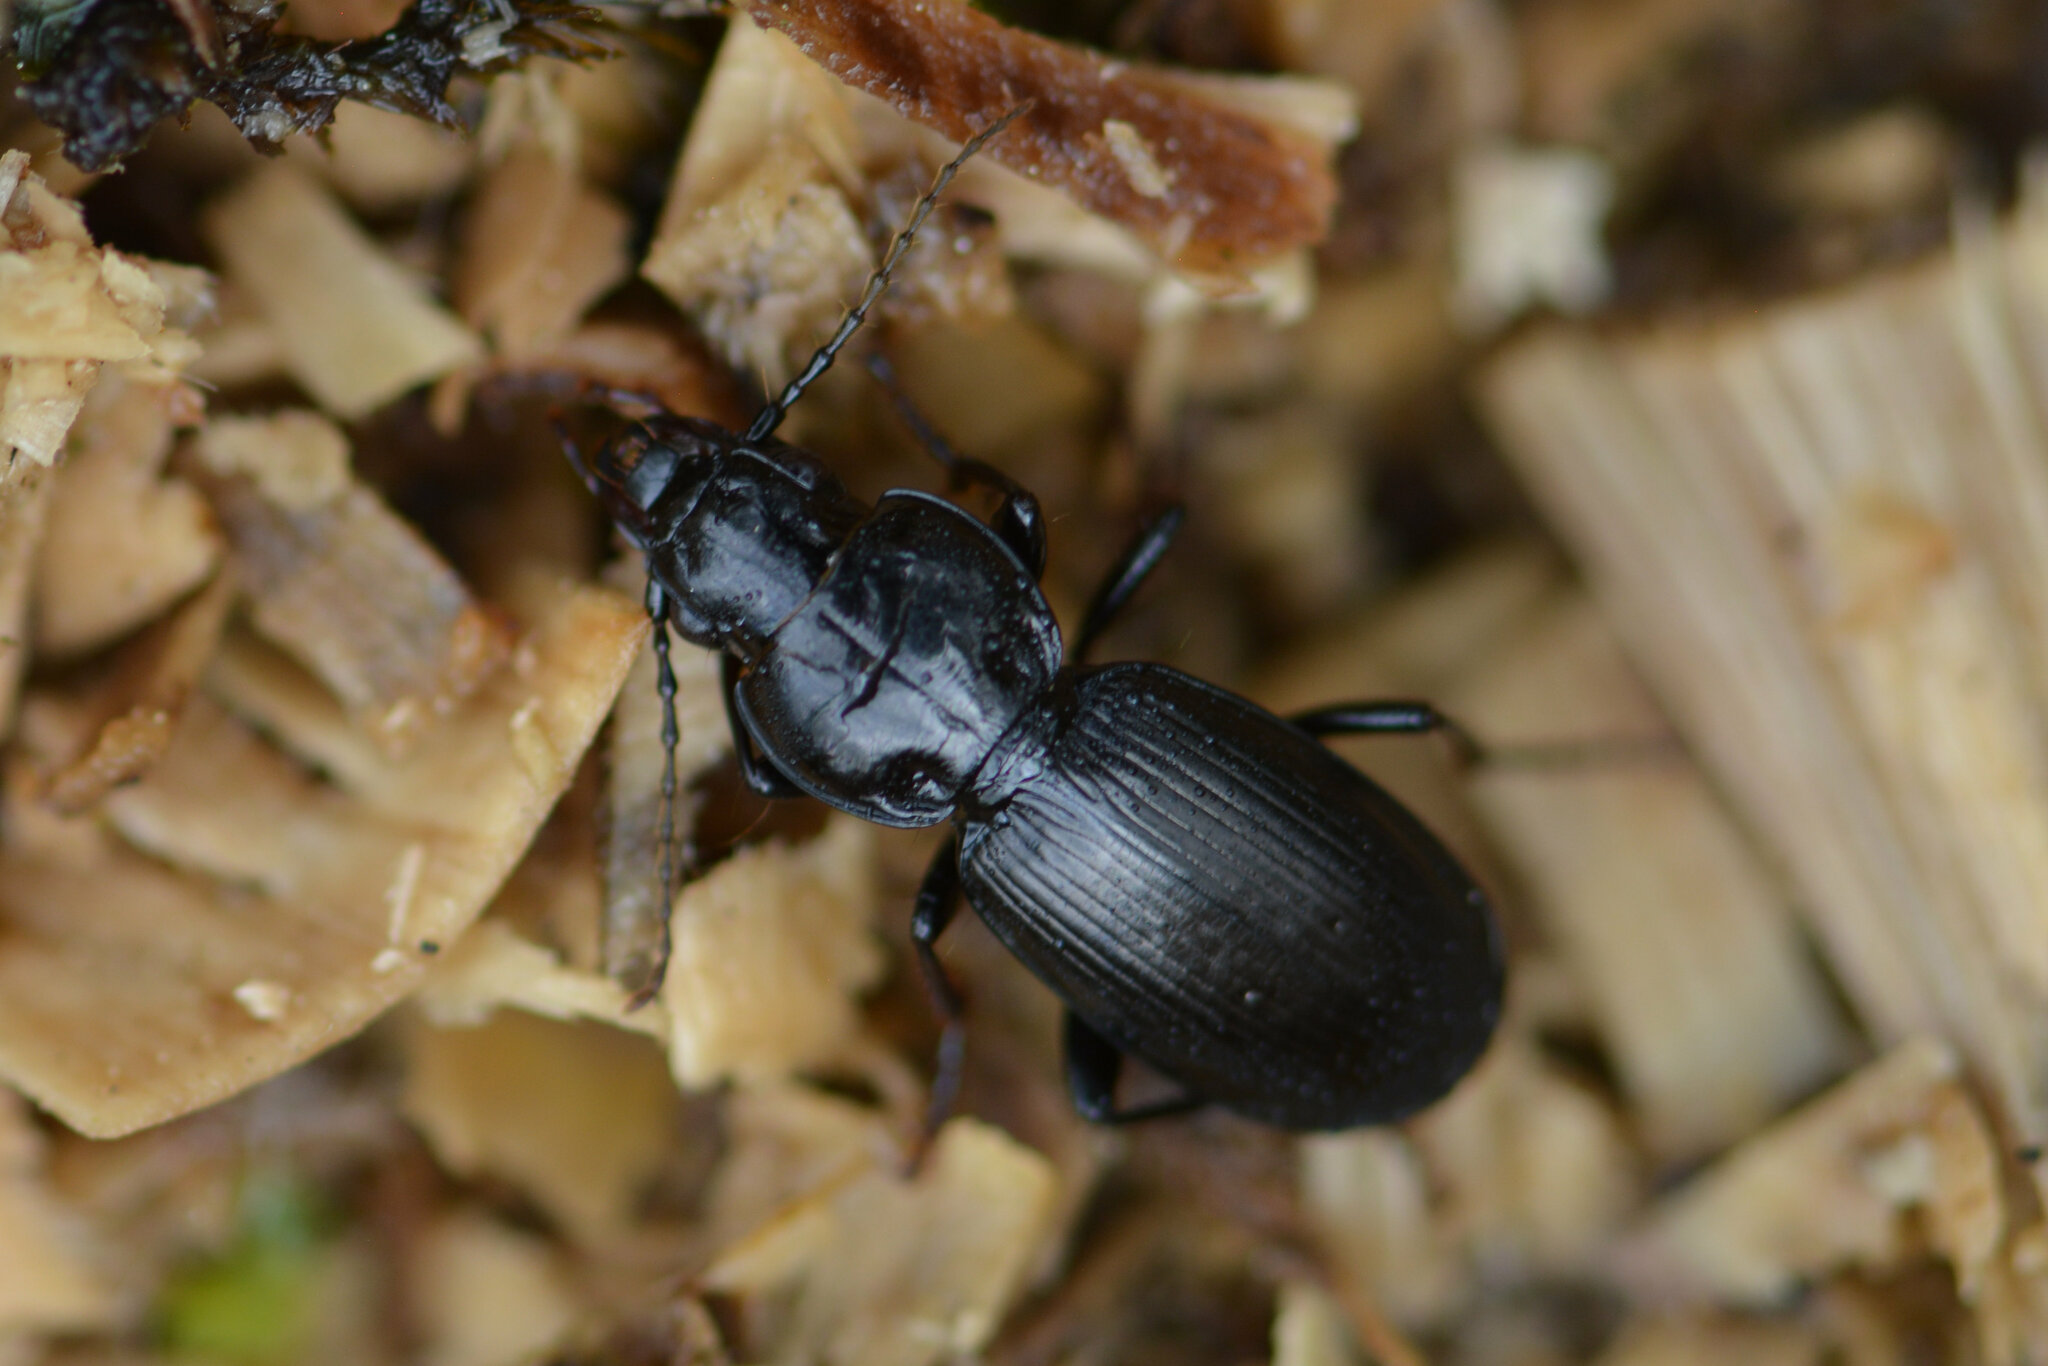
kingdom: Animalia
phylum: Arthropoda
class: Insecta
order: Coleoptera
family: Carabidae
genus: Pterostichus
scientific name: Pterostichus madidus
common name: Black clock
